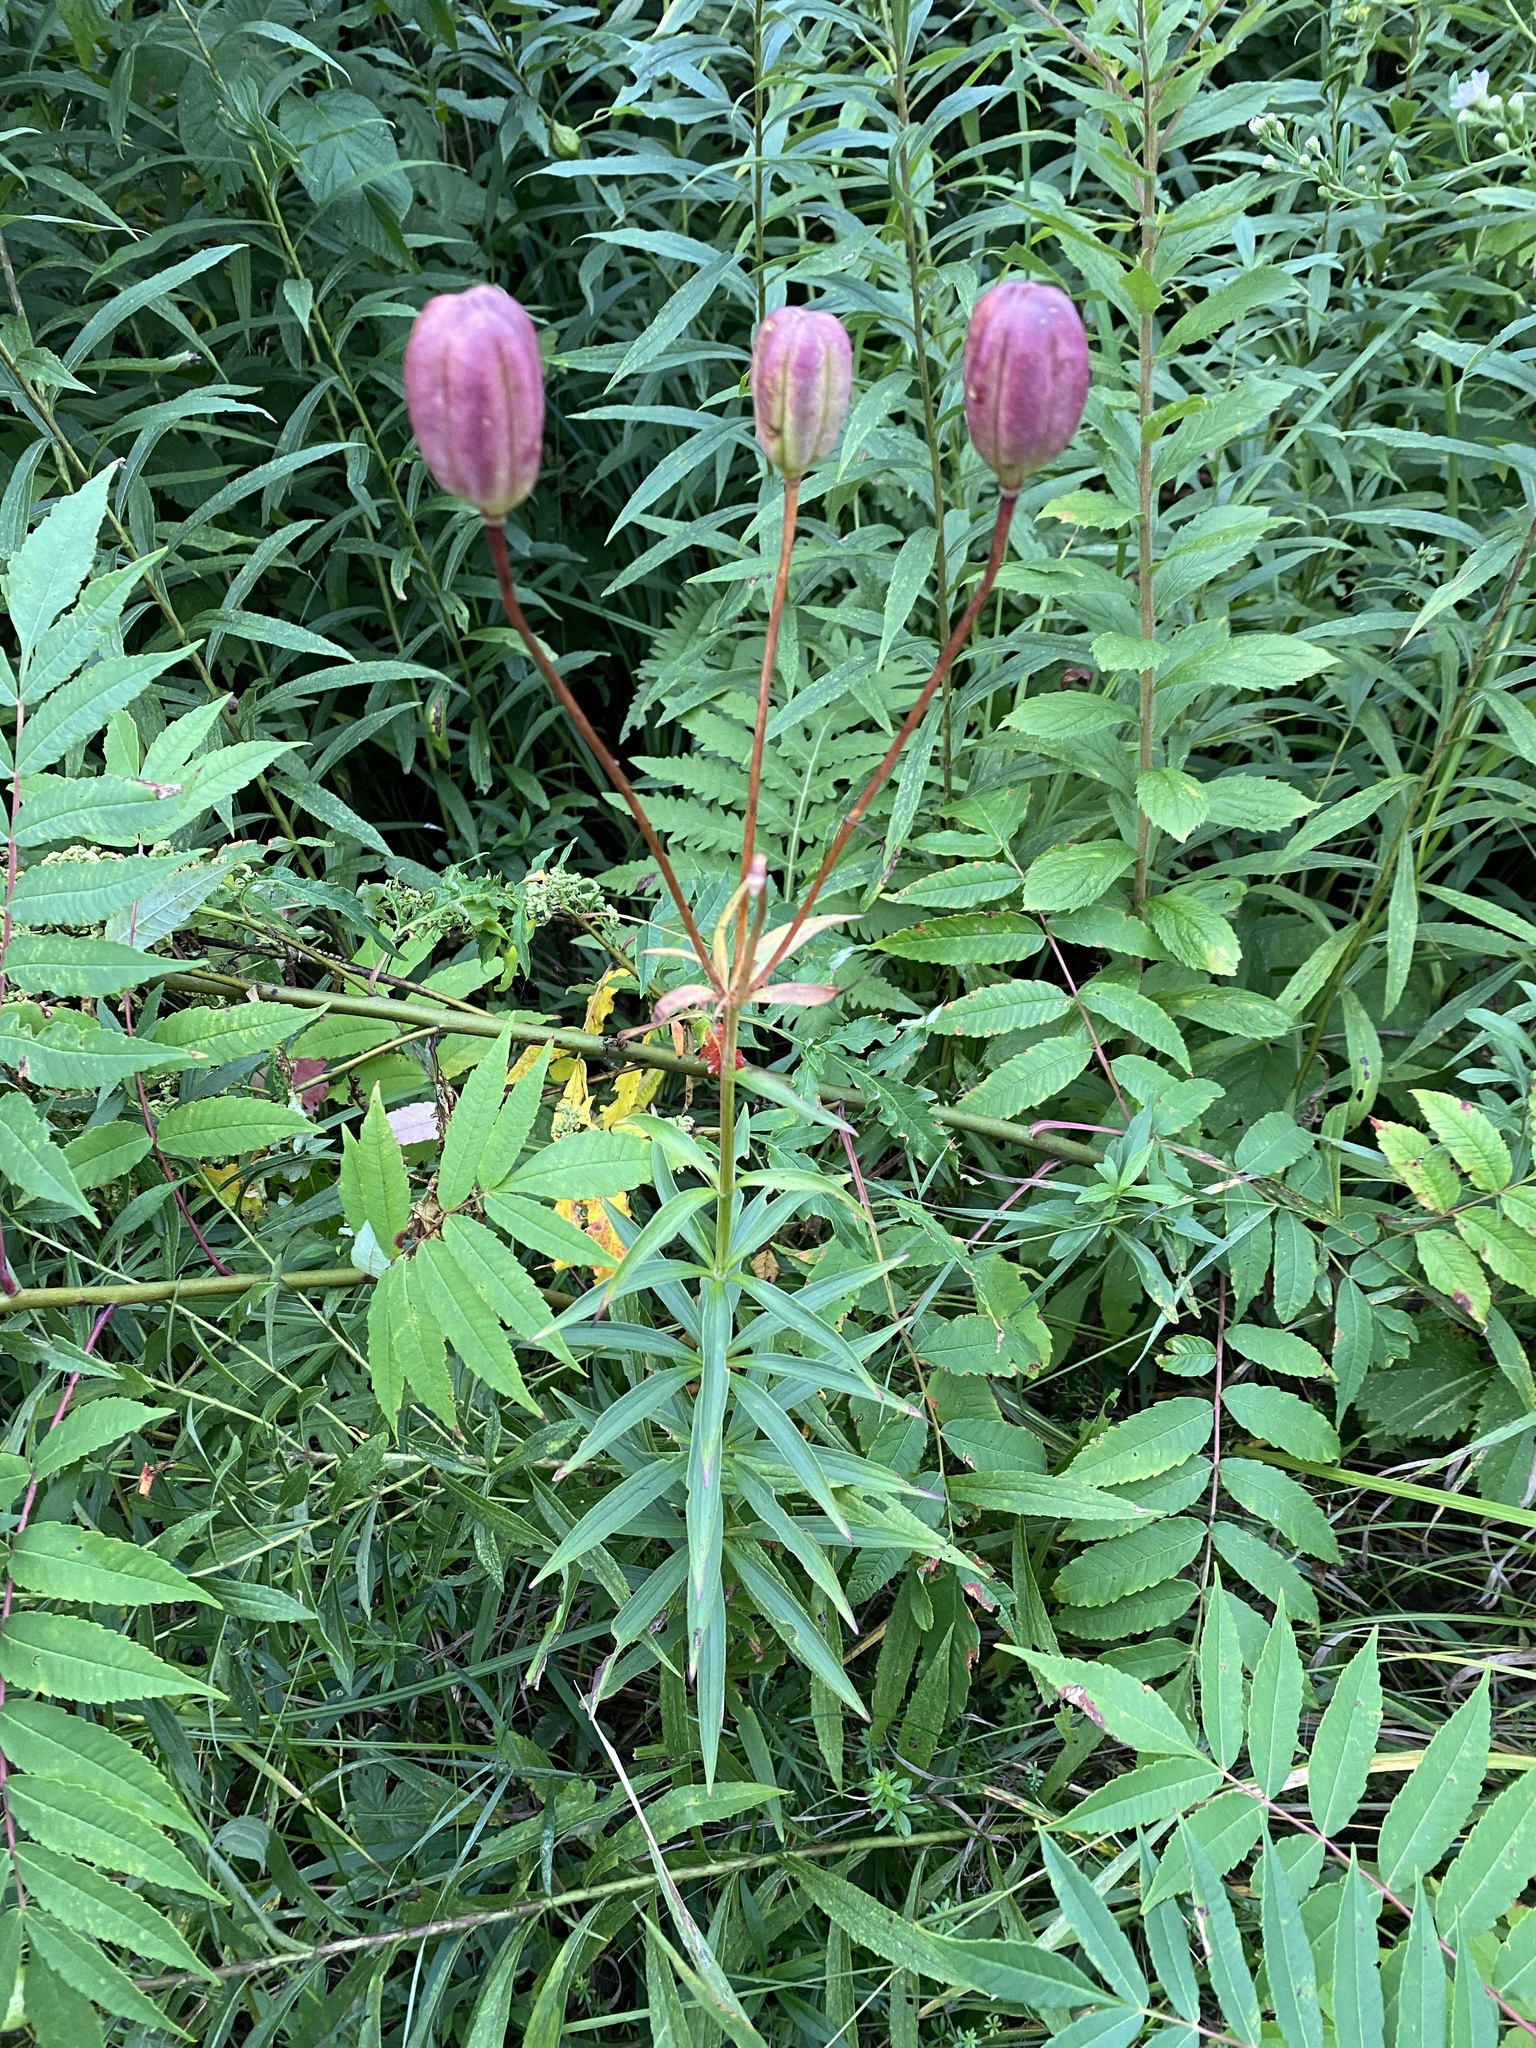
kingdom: Plantae
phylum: Tracheophyta
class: Liliopsida
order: Liliales
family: Liliaceae
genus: Lilium
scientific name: Lilium canadense
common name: Canada lily
